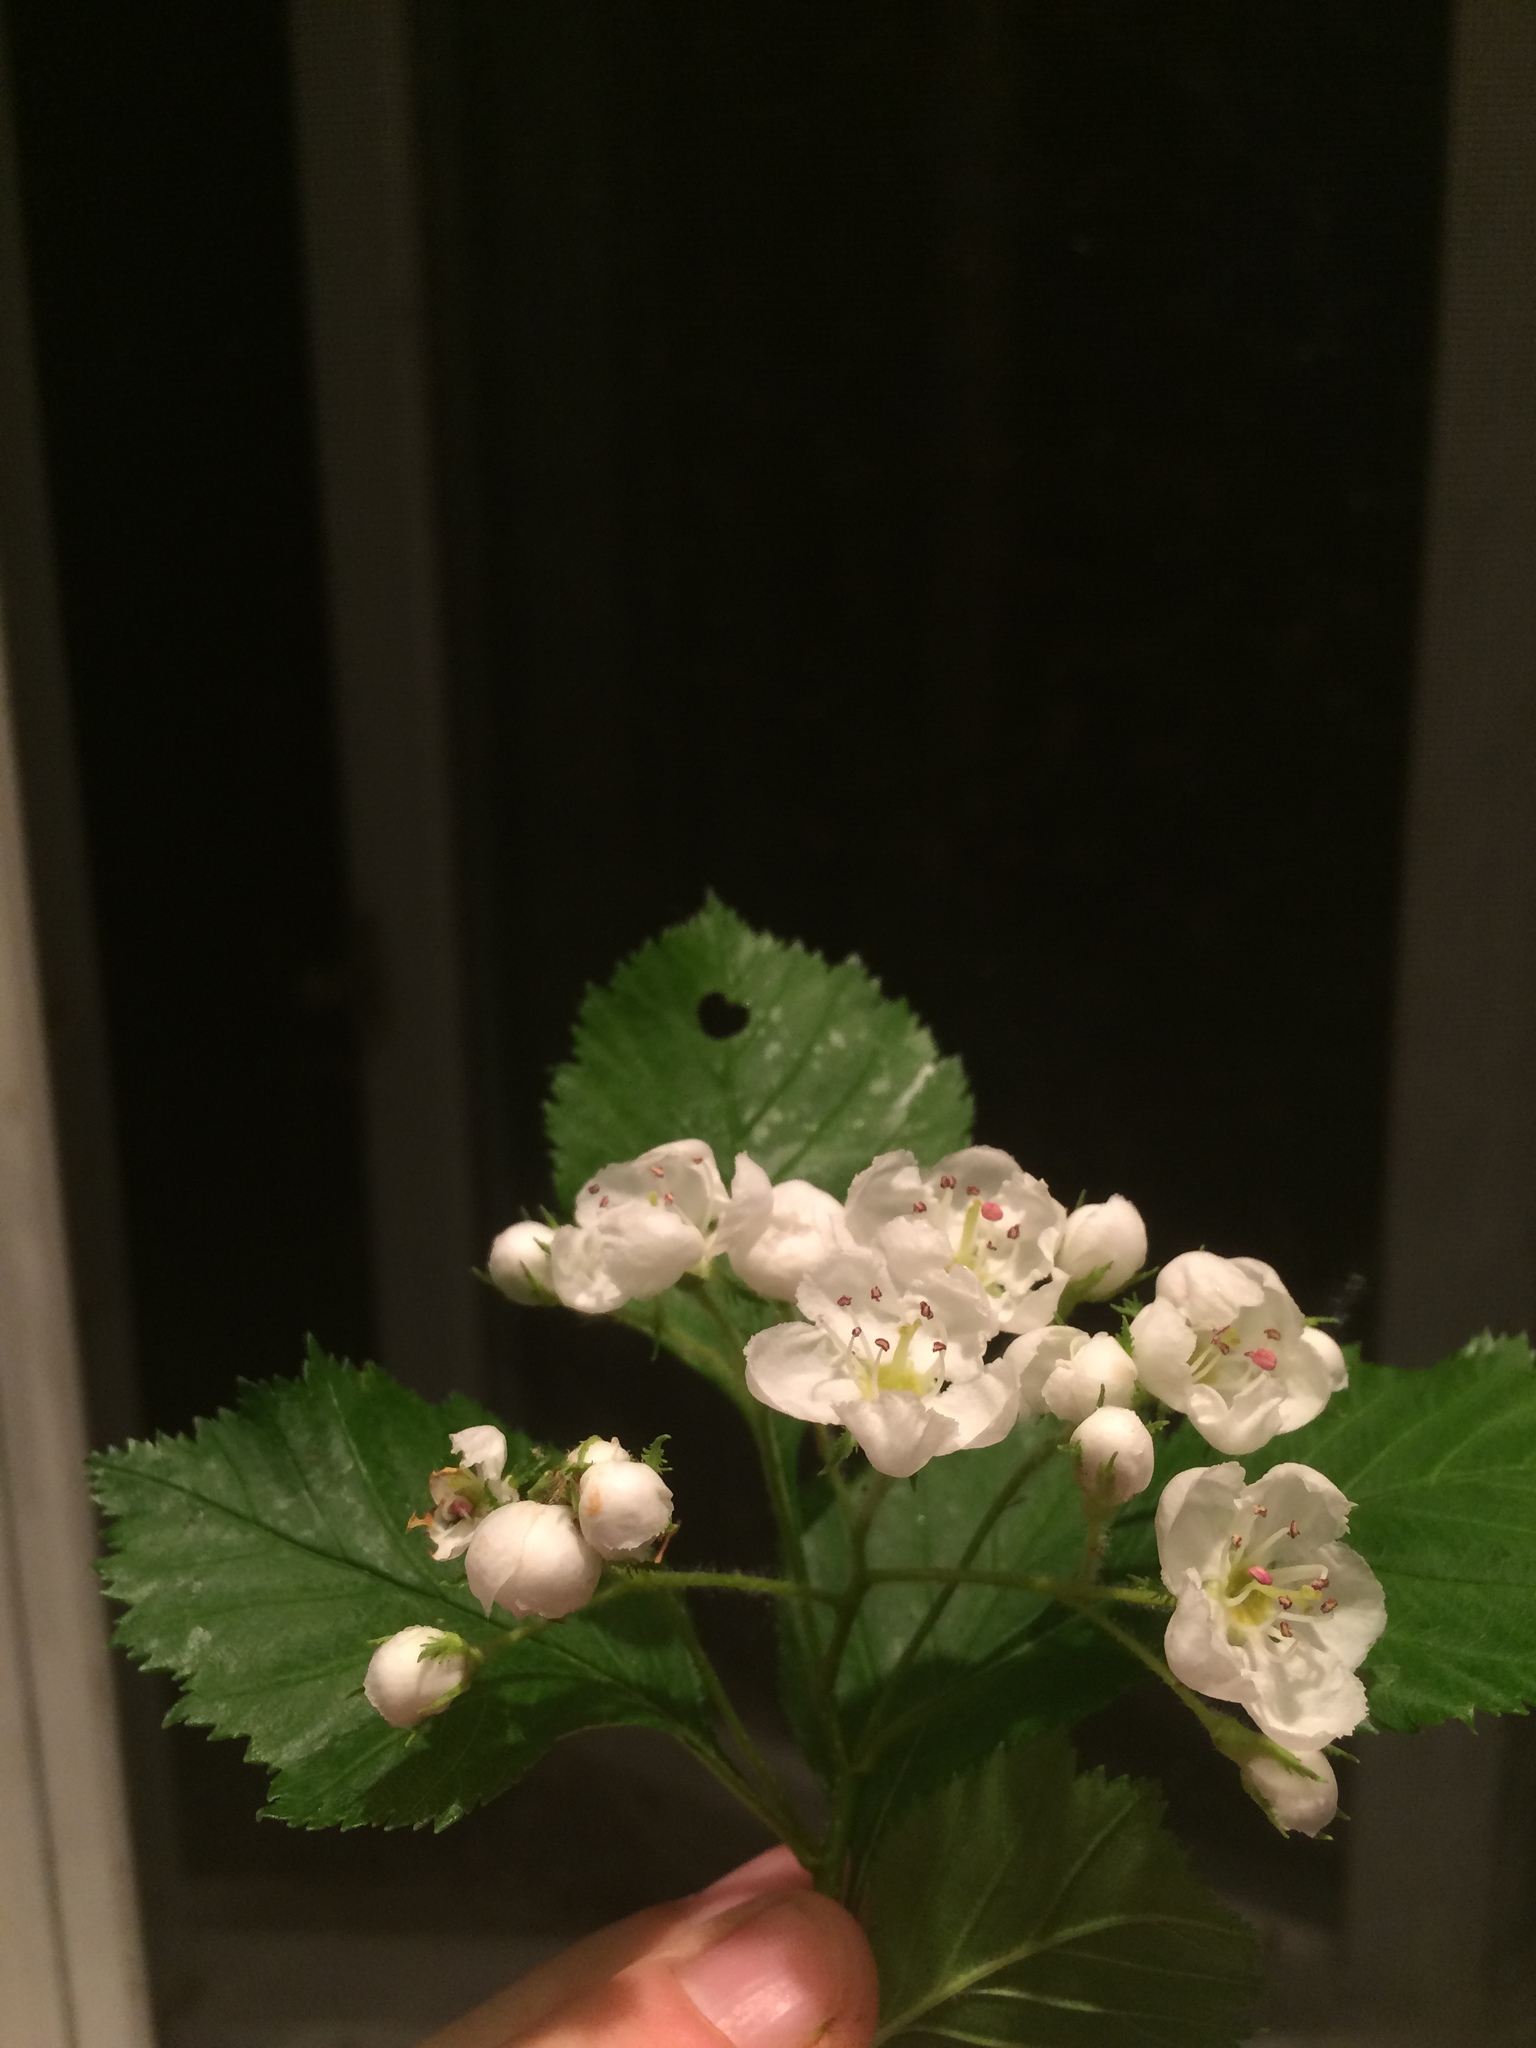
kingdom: Plantae
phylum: Tracheophyta
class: Magnoliopsida
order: Rosales
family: Rosaceae
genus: Crataegus
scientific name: Crataegus macracantha
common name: Large-thorn hawthorn
